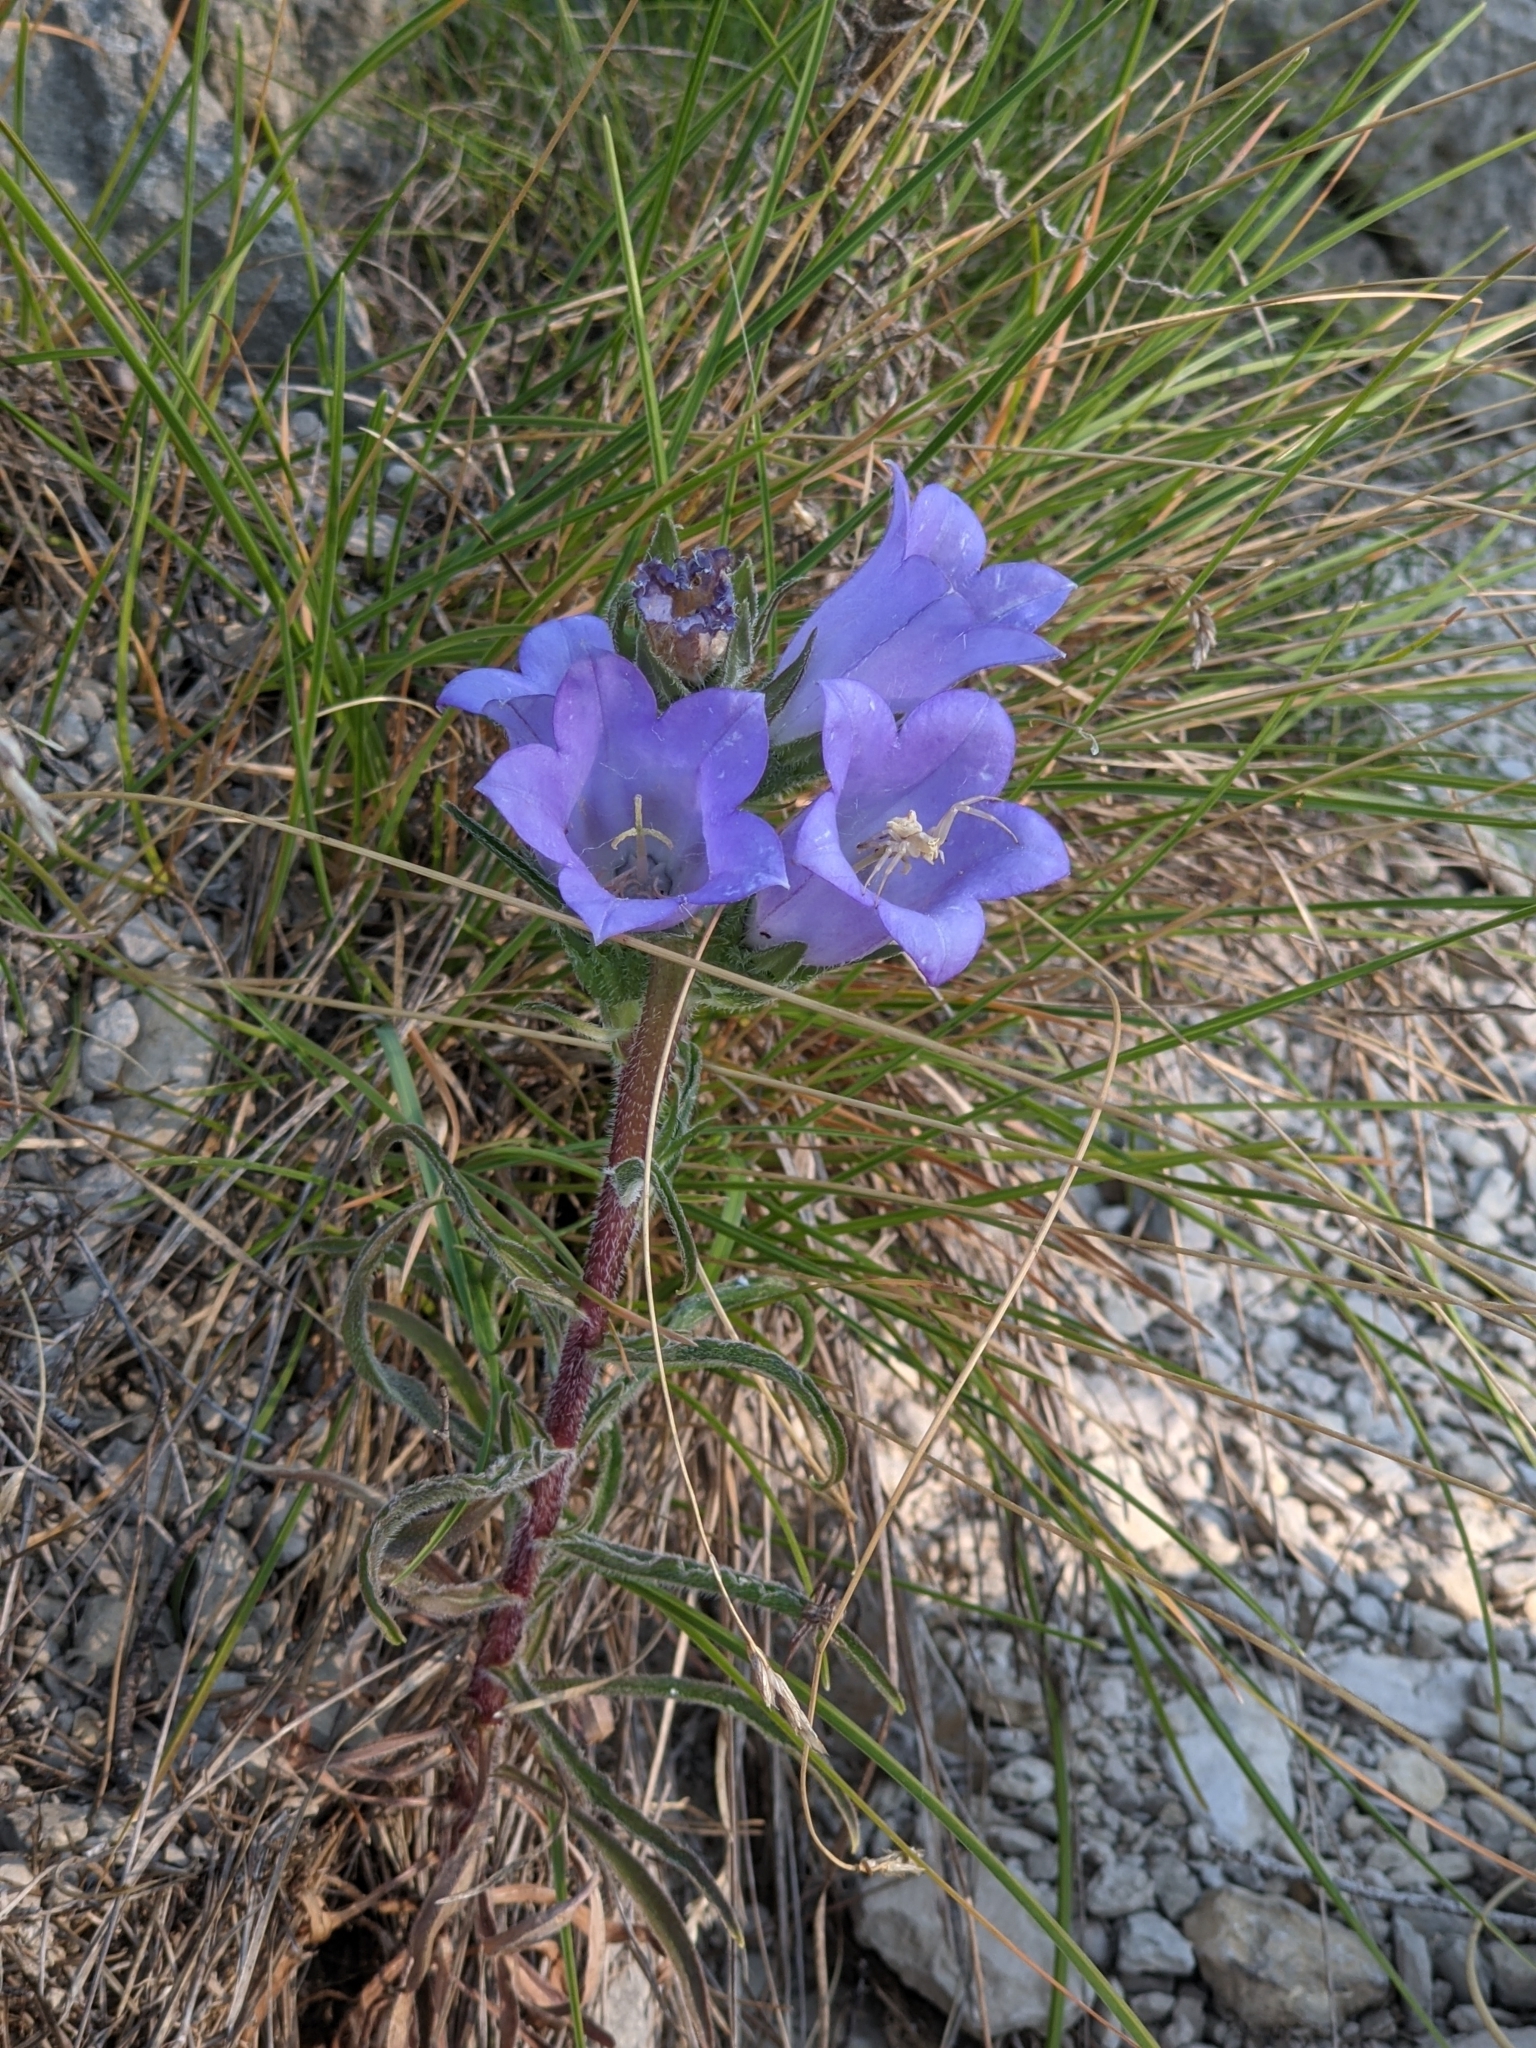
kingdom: Plantae
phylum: Tracheophyta
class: Magnoliopsida
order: Asterales
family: Campanulaceae
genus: Campanula
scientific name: Campanula speciosa
